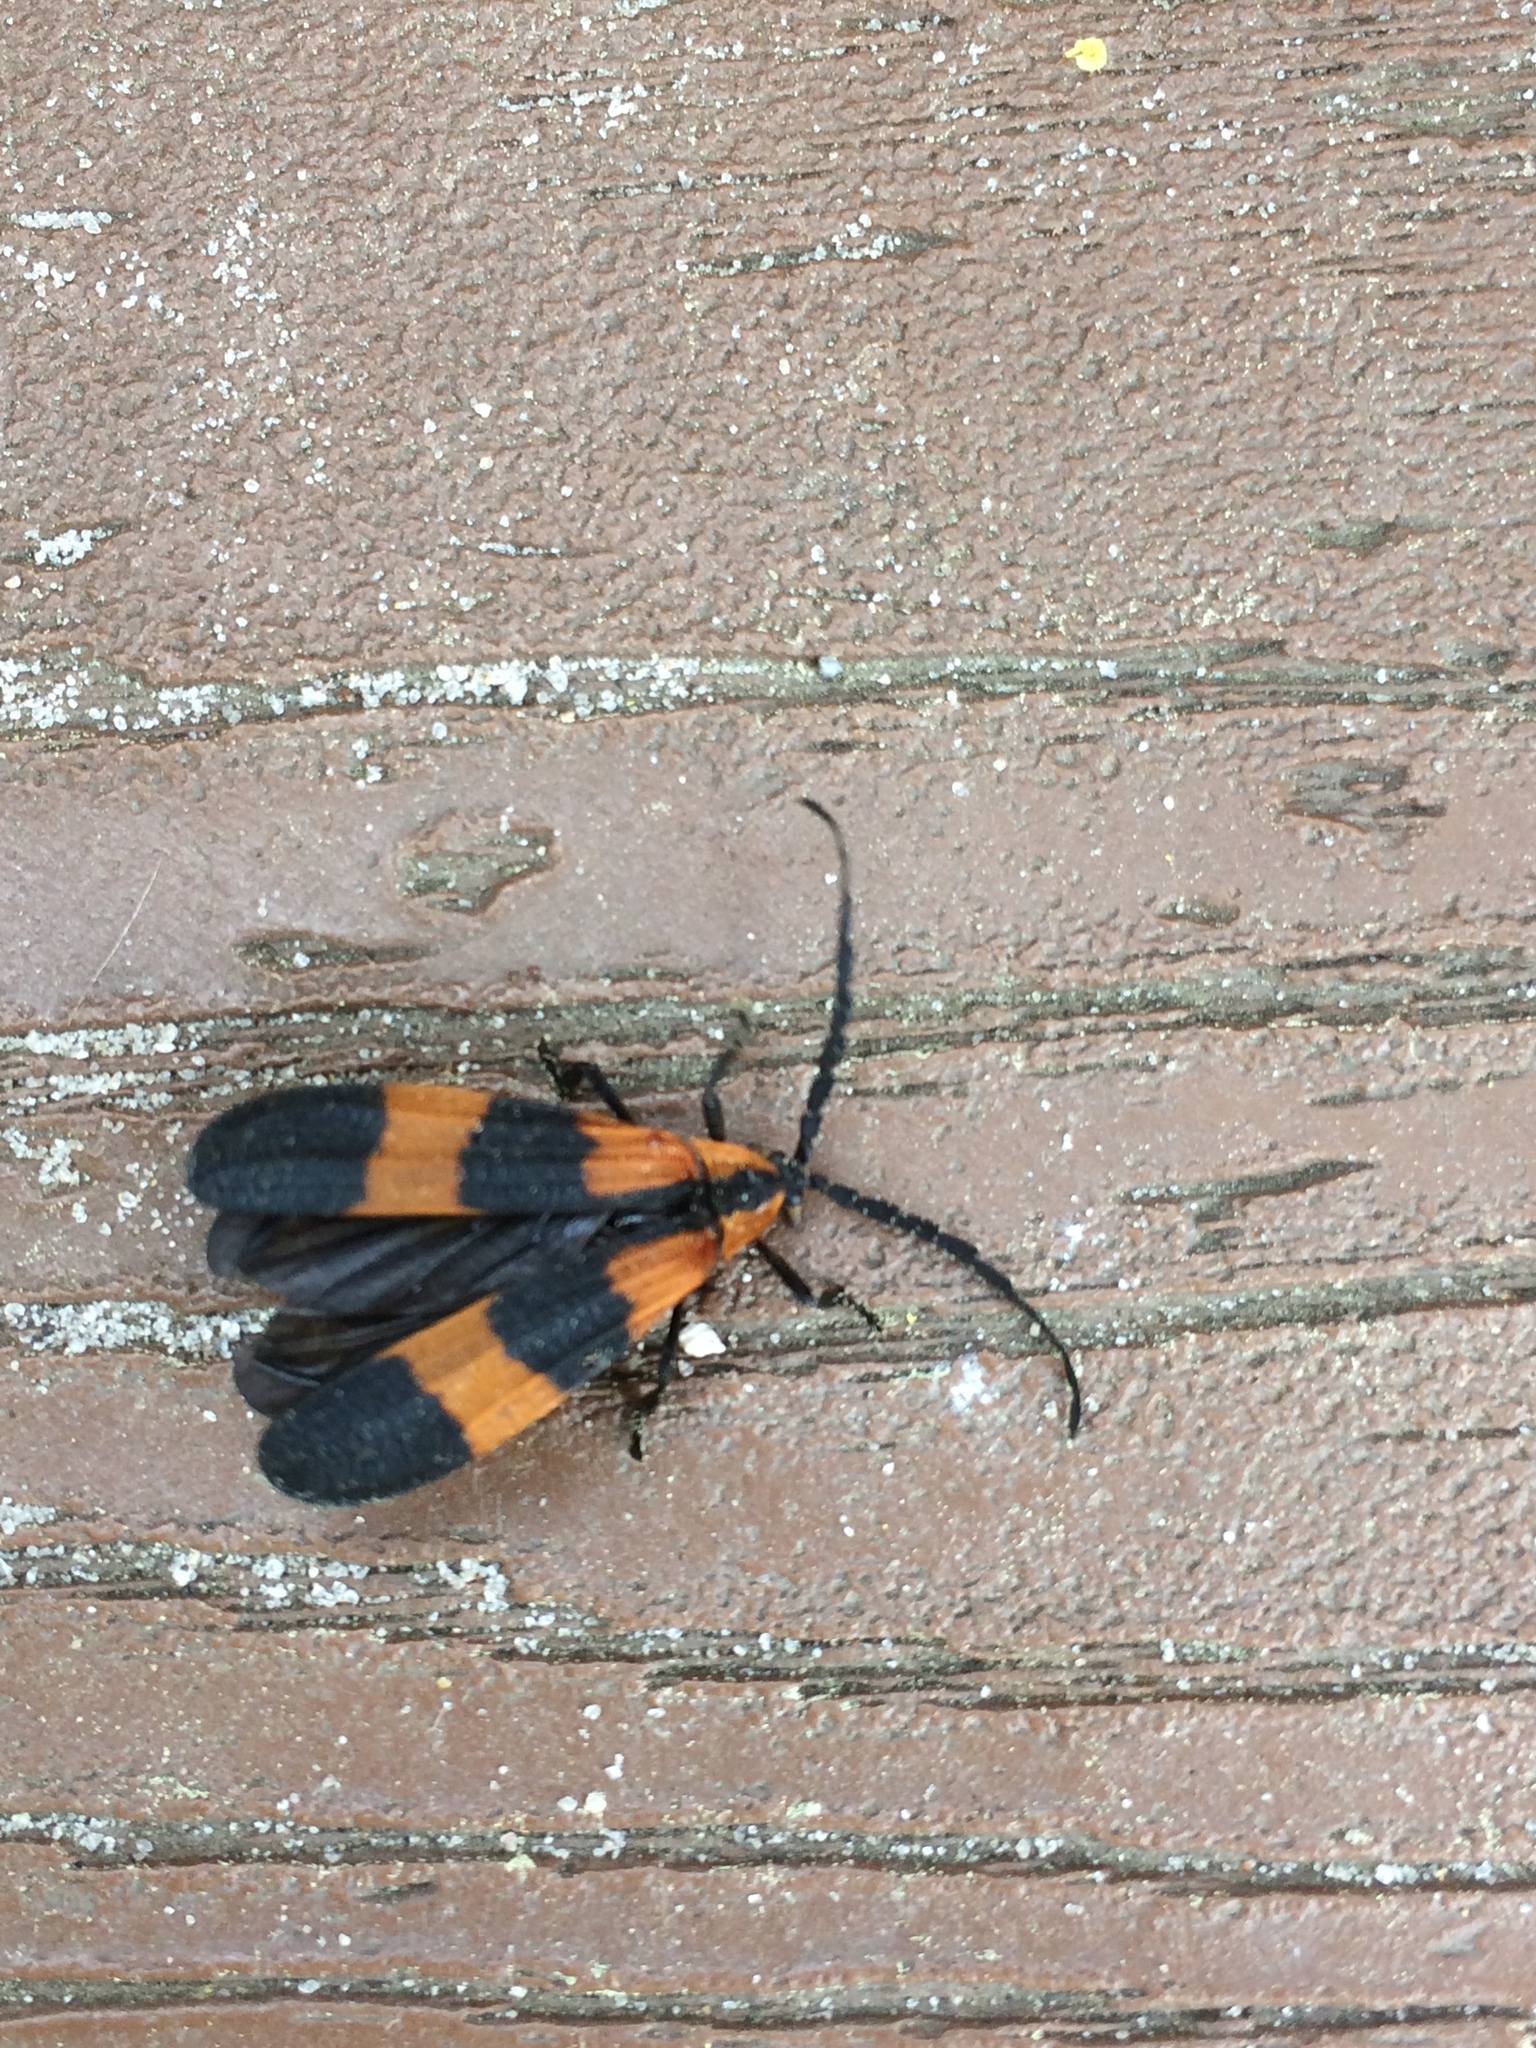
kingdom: Animalia
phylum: Arthropoda
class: Insecta
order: Coleoptera
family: Lycidae
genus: Calopteron
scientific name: Calopteron reticulatum
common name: Banded net-winged beetle
